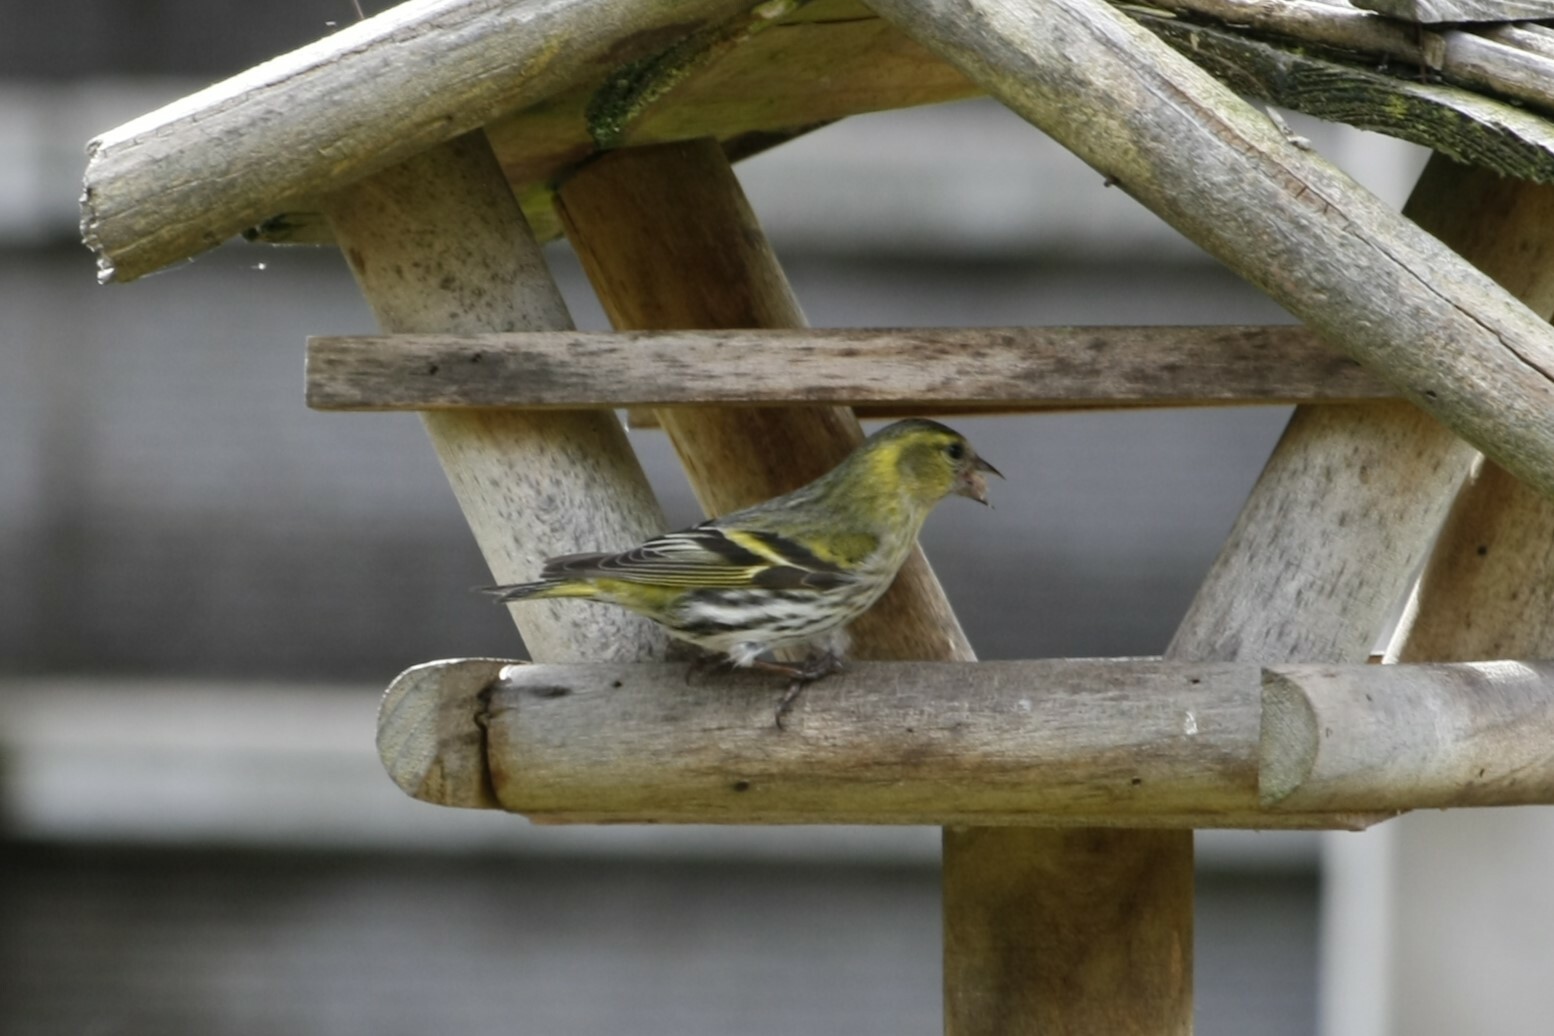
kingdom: Animalia
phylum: Chordata
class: Aves
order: Passeriformes
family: Fringillidae
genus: Spinus
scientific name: Spinus spinus
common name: Eurasian siskin
